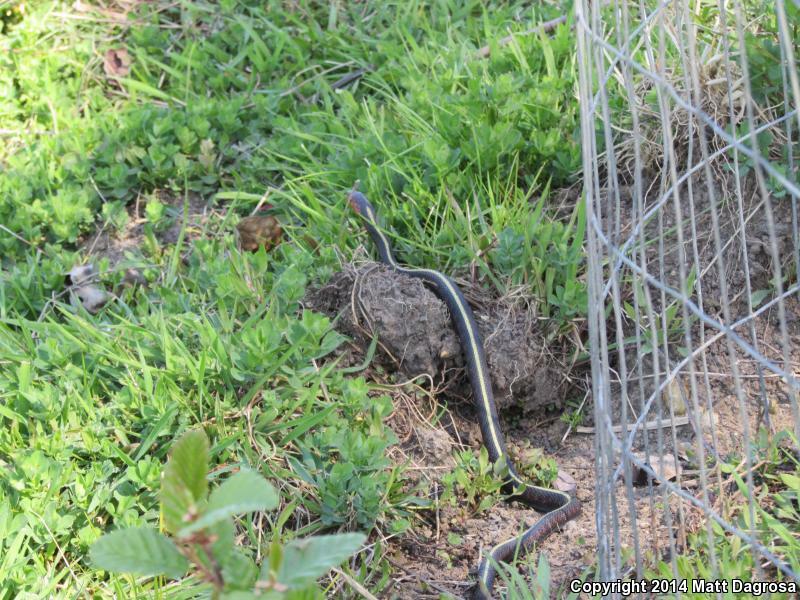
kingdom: Animalia
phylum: Chordata
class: Squamata
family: Colubridae
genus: Thamnophis
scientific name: Thamnophis sirtalis
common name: Common garter snake
